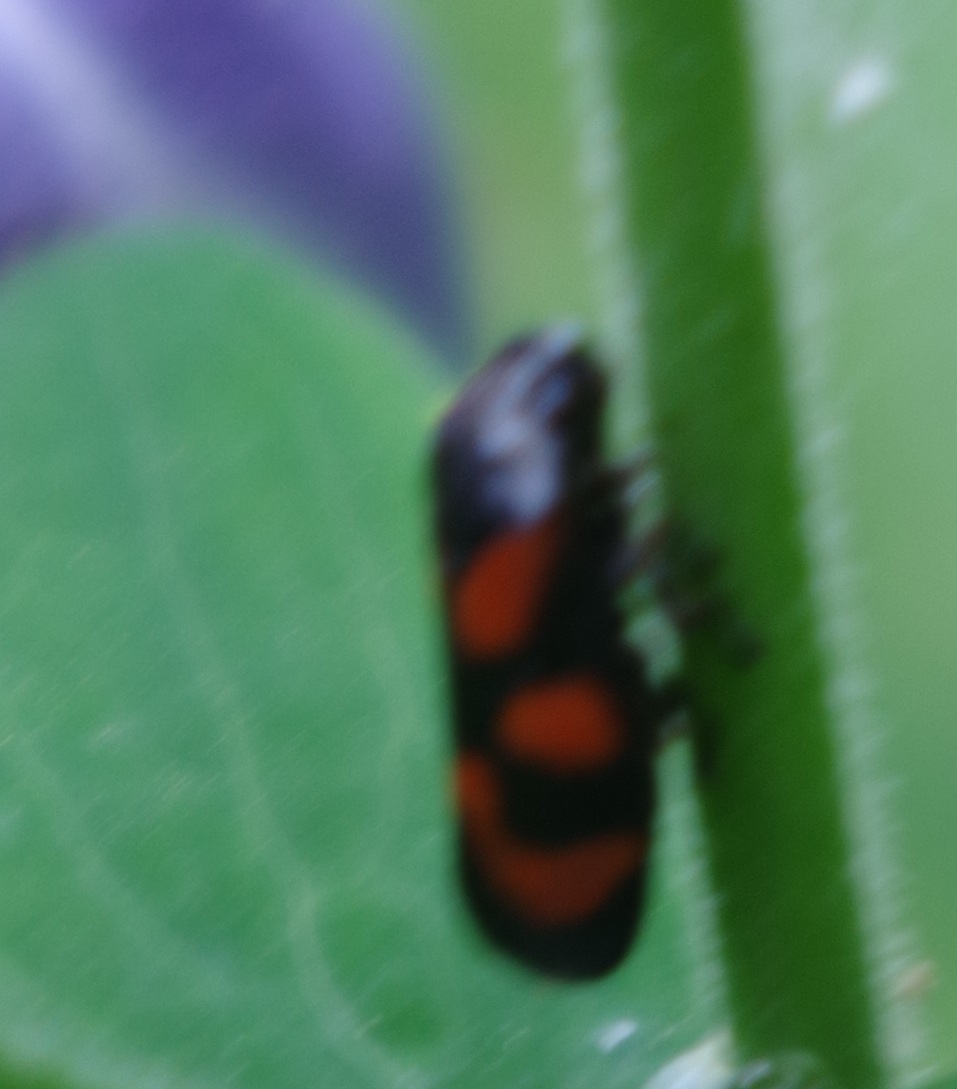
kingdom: Animalia
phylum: Arthropoda
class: Insecta
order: Hemiptera
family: Cercopidae
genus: Cercopis
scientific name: Cercopis vulnerata
